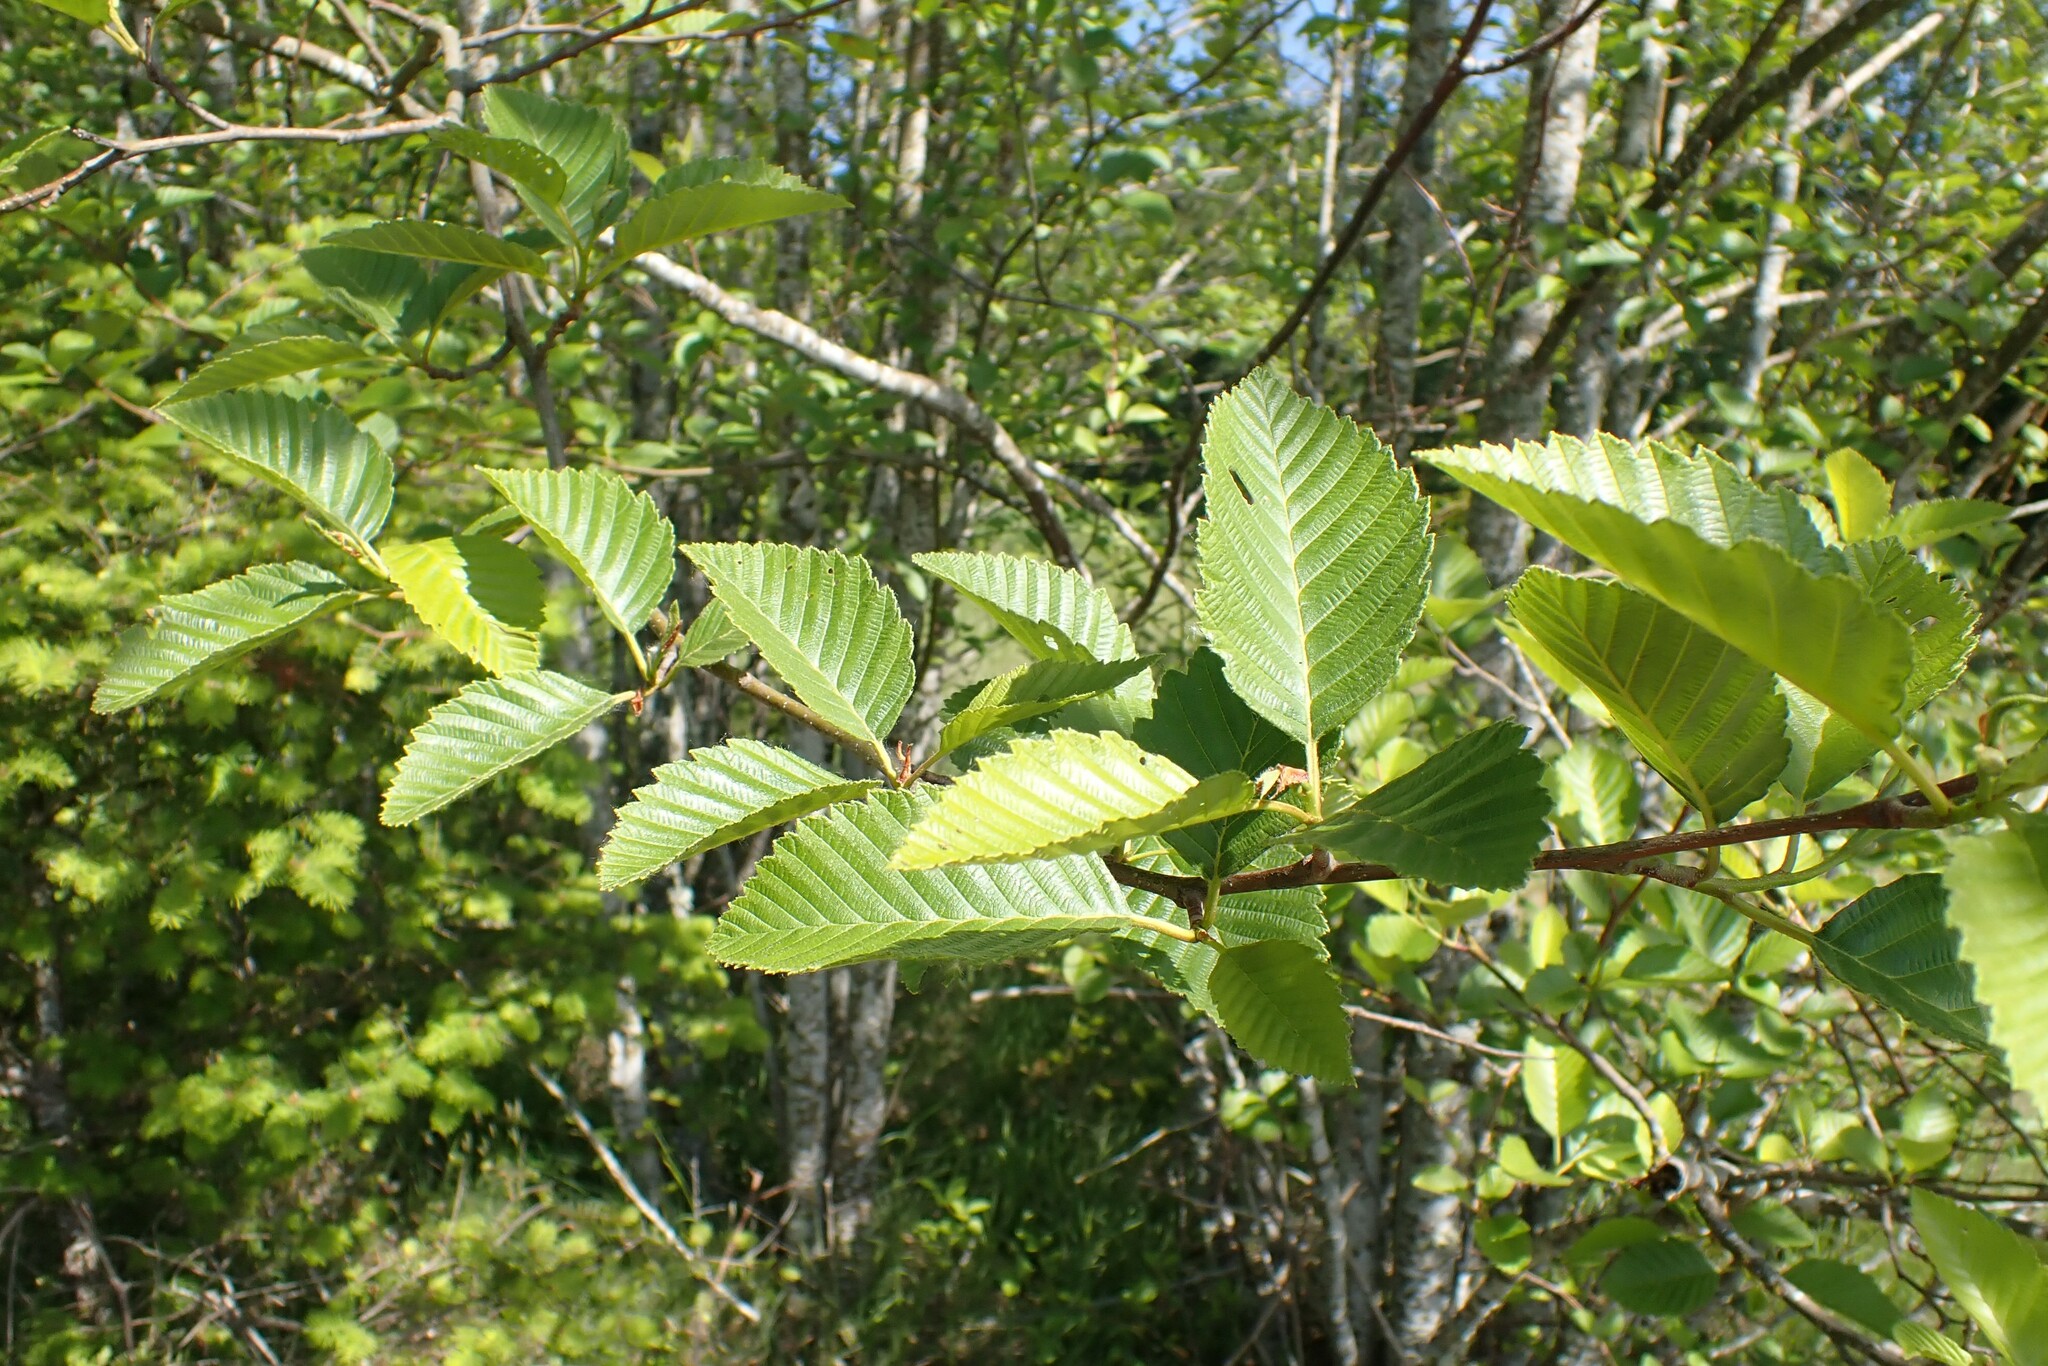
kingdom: Plantae
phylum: Tracheophyta
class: Magnoliopsida
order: Fagales
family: Betulaceae
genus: Alnus
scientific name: Alnus rubra
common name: Red alder
